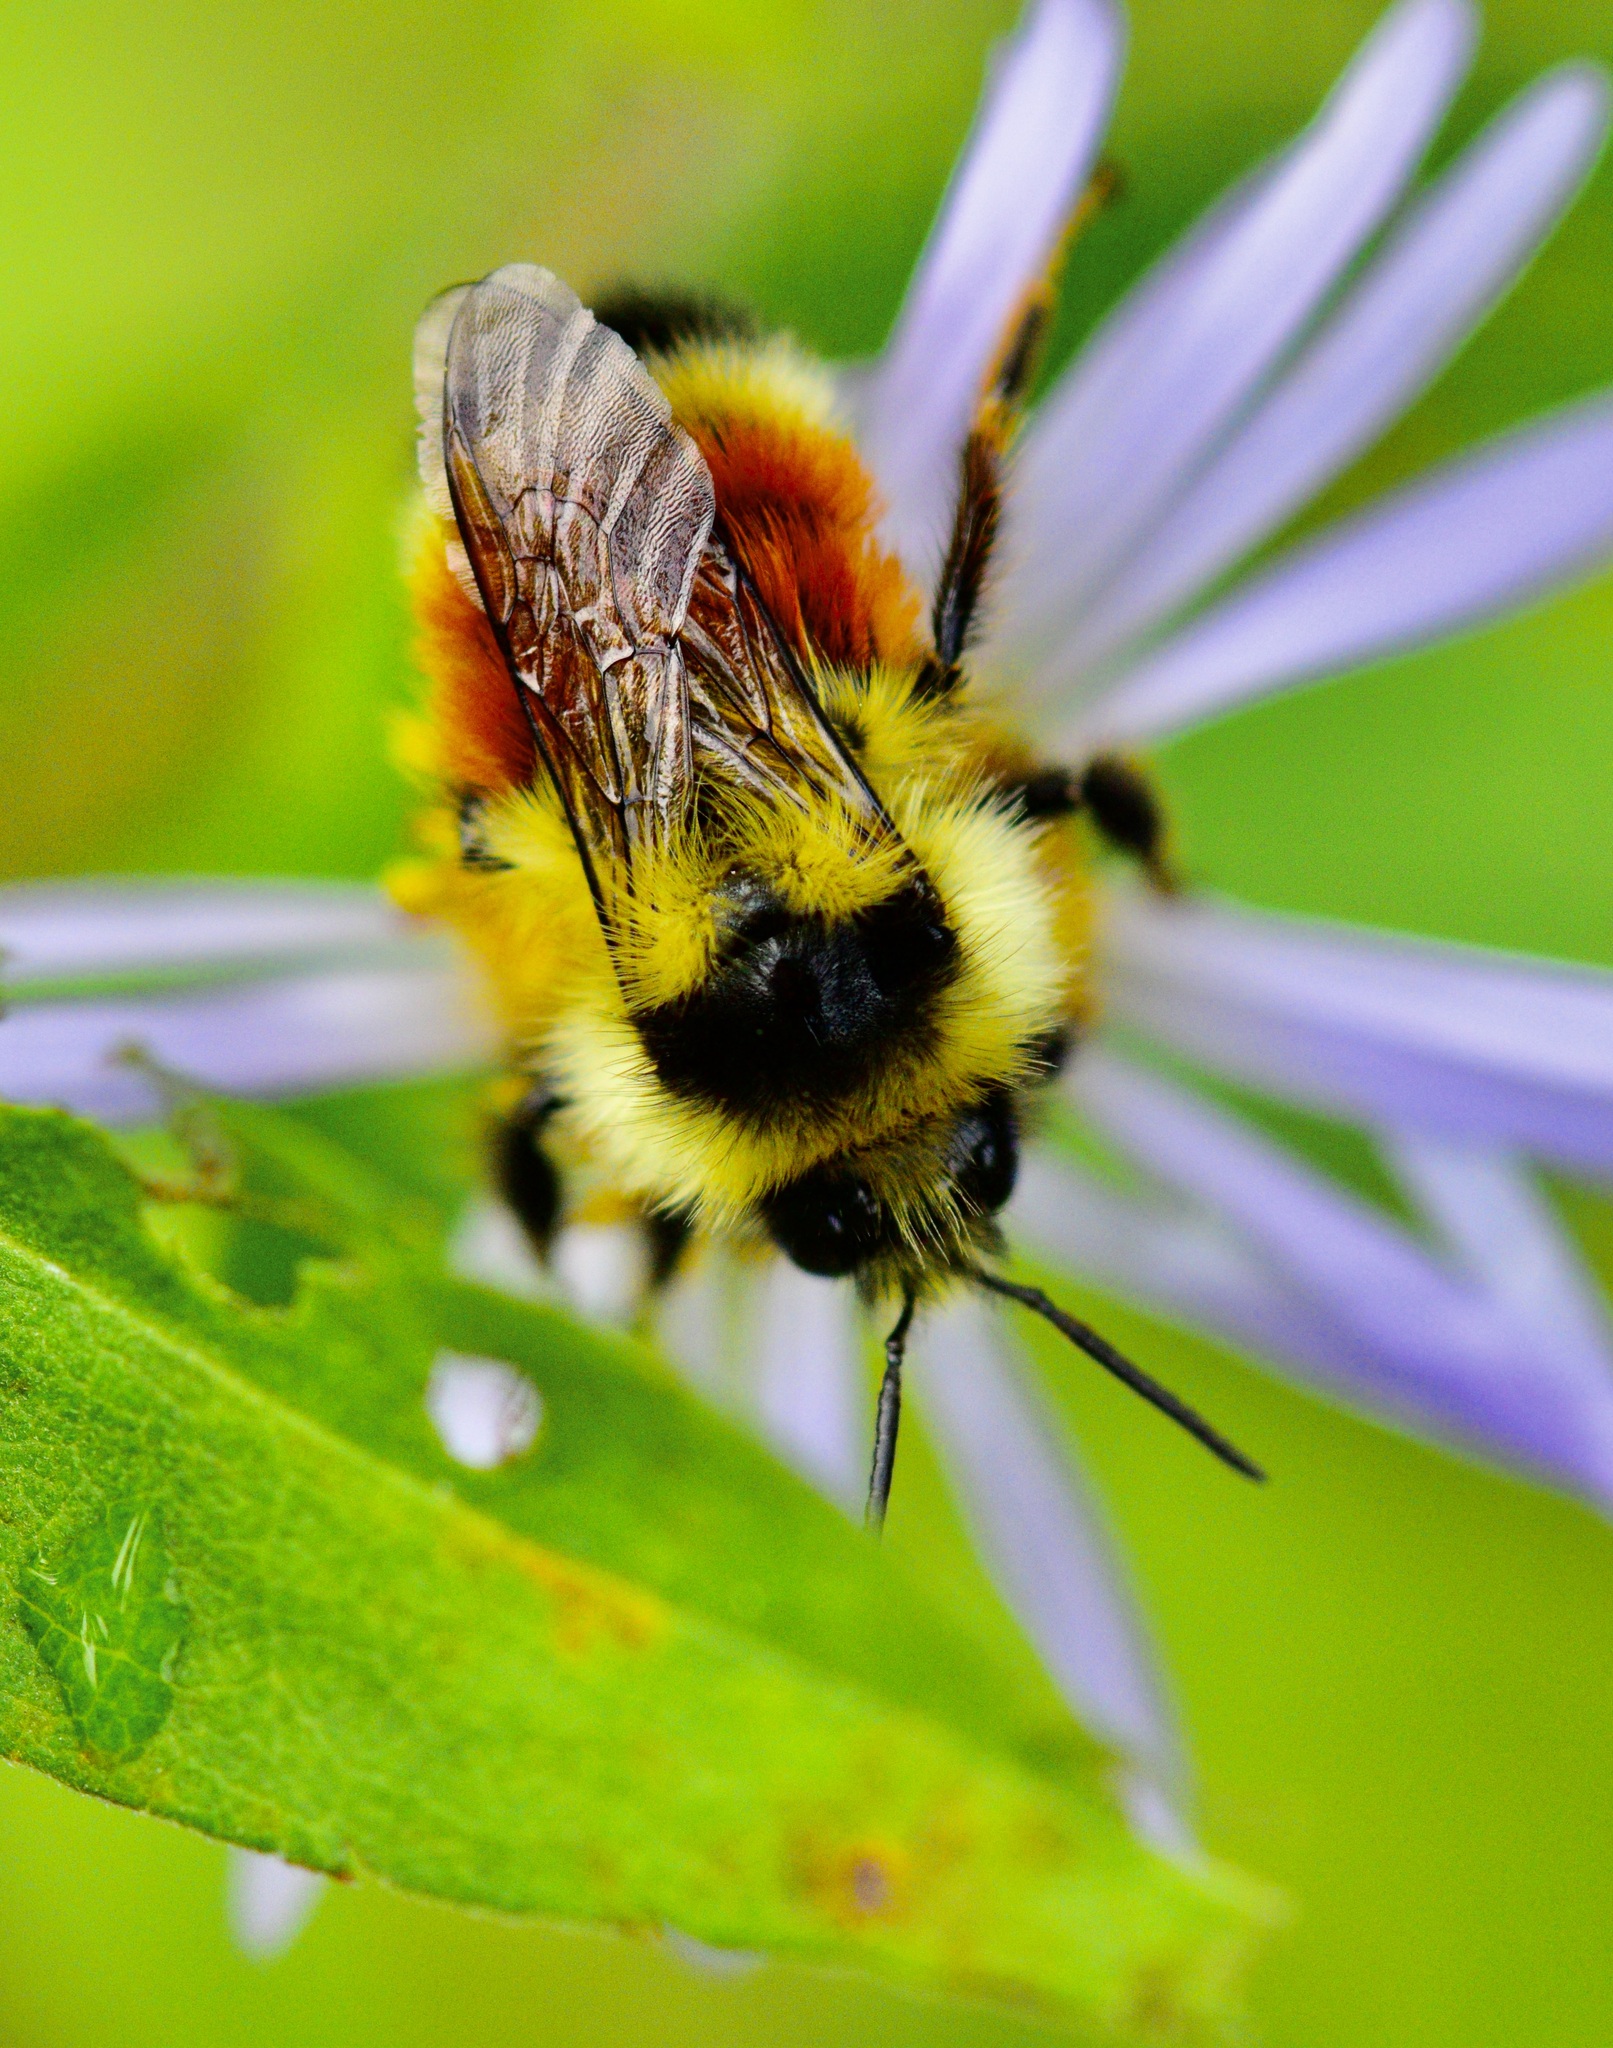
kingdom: Animalia
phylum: Arthropoda
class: Insecta
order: Hymenoptera
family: Apidae
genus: Bombus
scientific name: Bombus ternarius
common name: Tri-colored bumble bee
